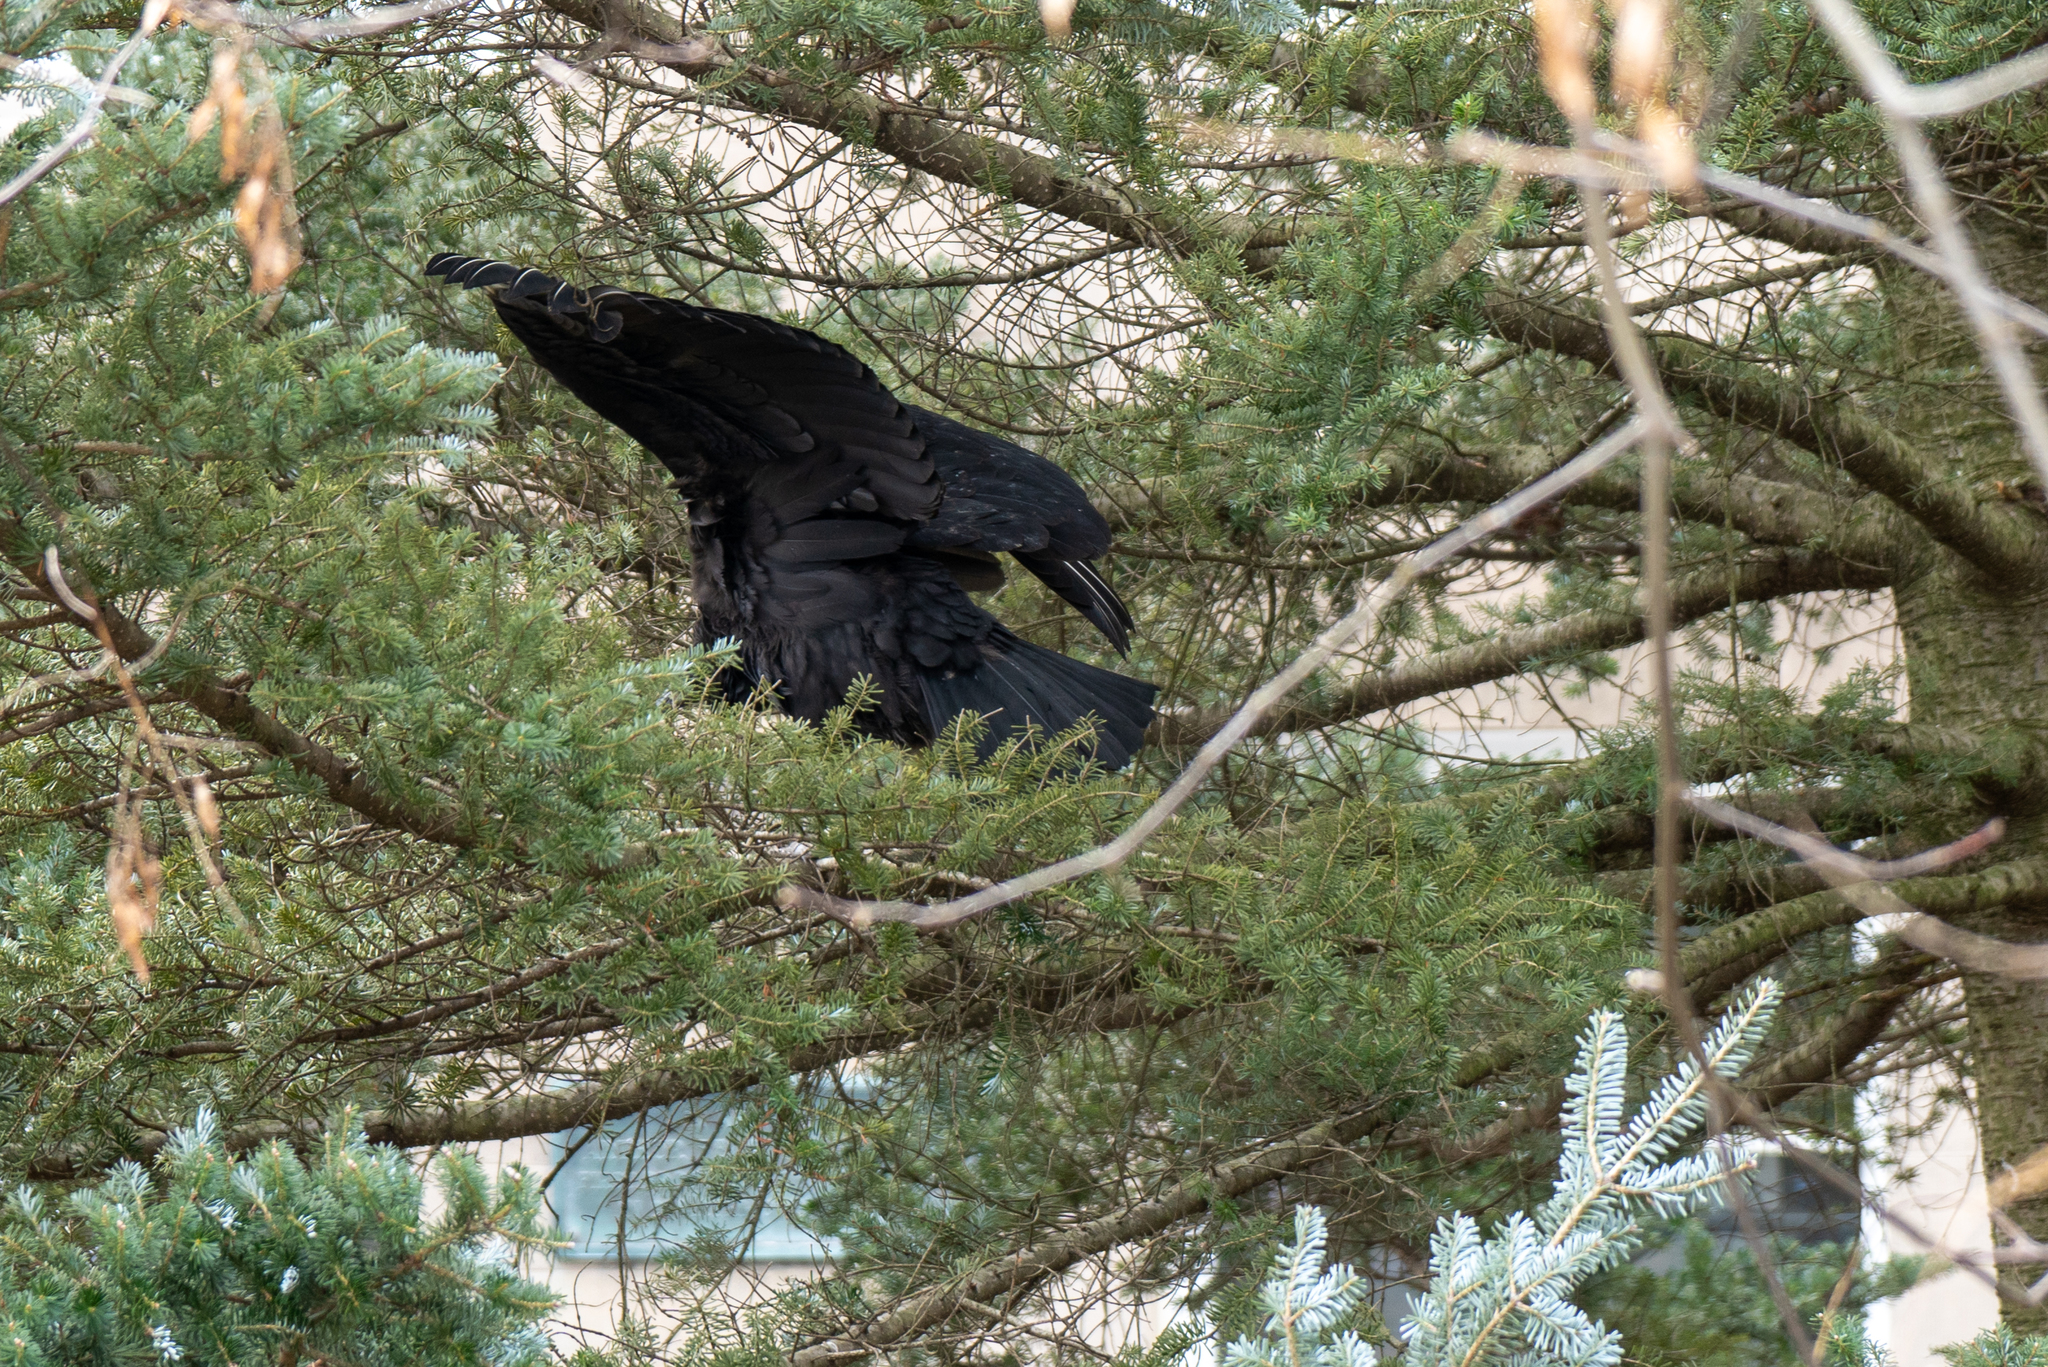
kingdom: Animalia
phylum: Chordata
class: Aves
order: Accipitriformes
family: Cathartidae
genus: Coragyps
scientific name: Coragyps atratus
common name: Black vulture
